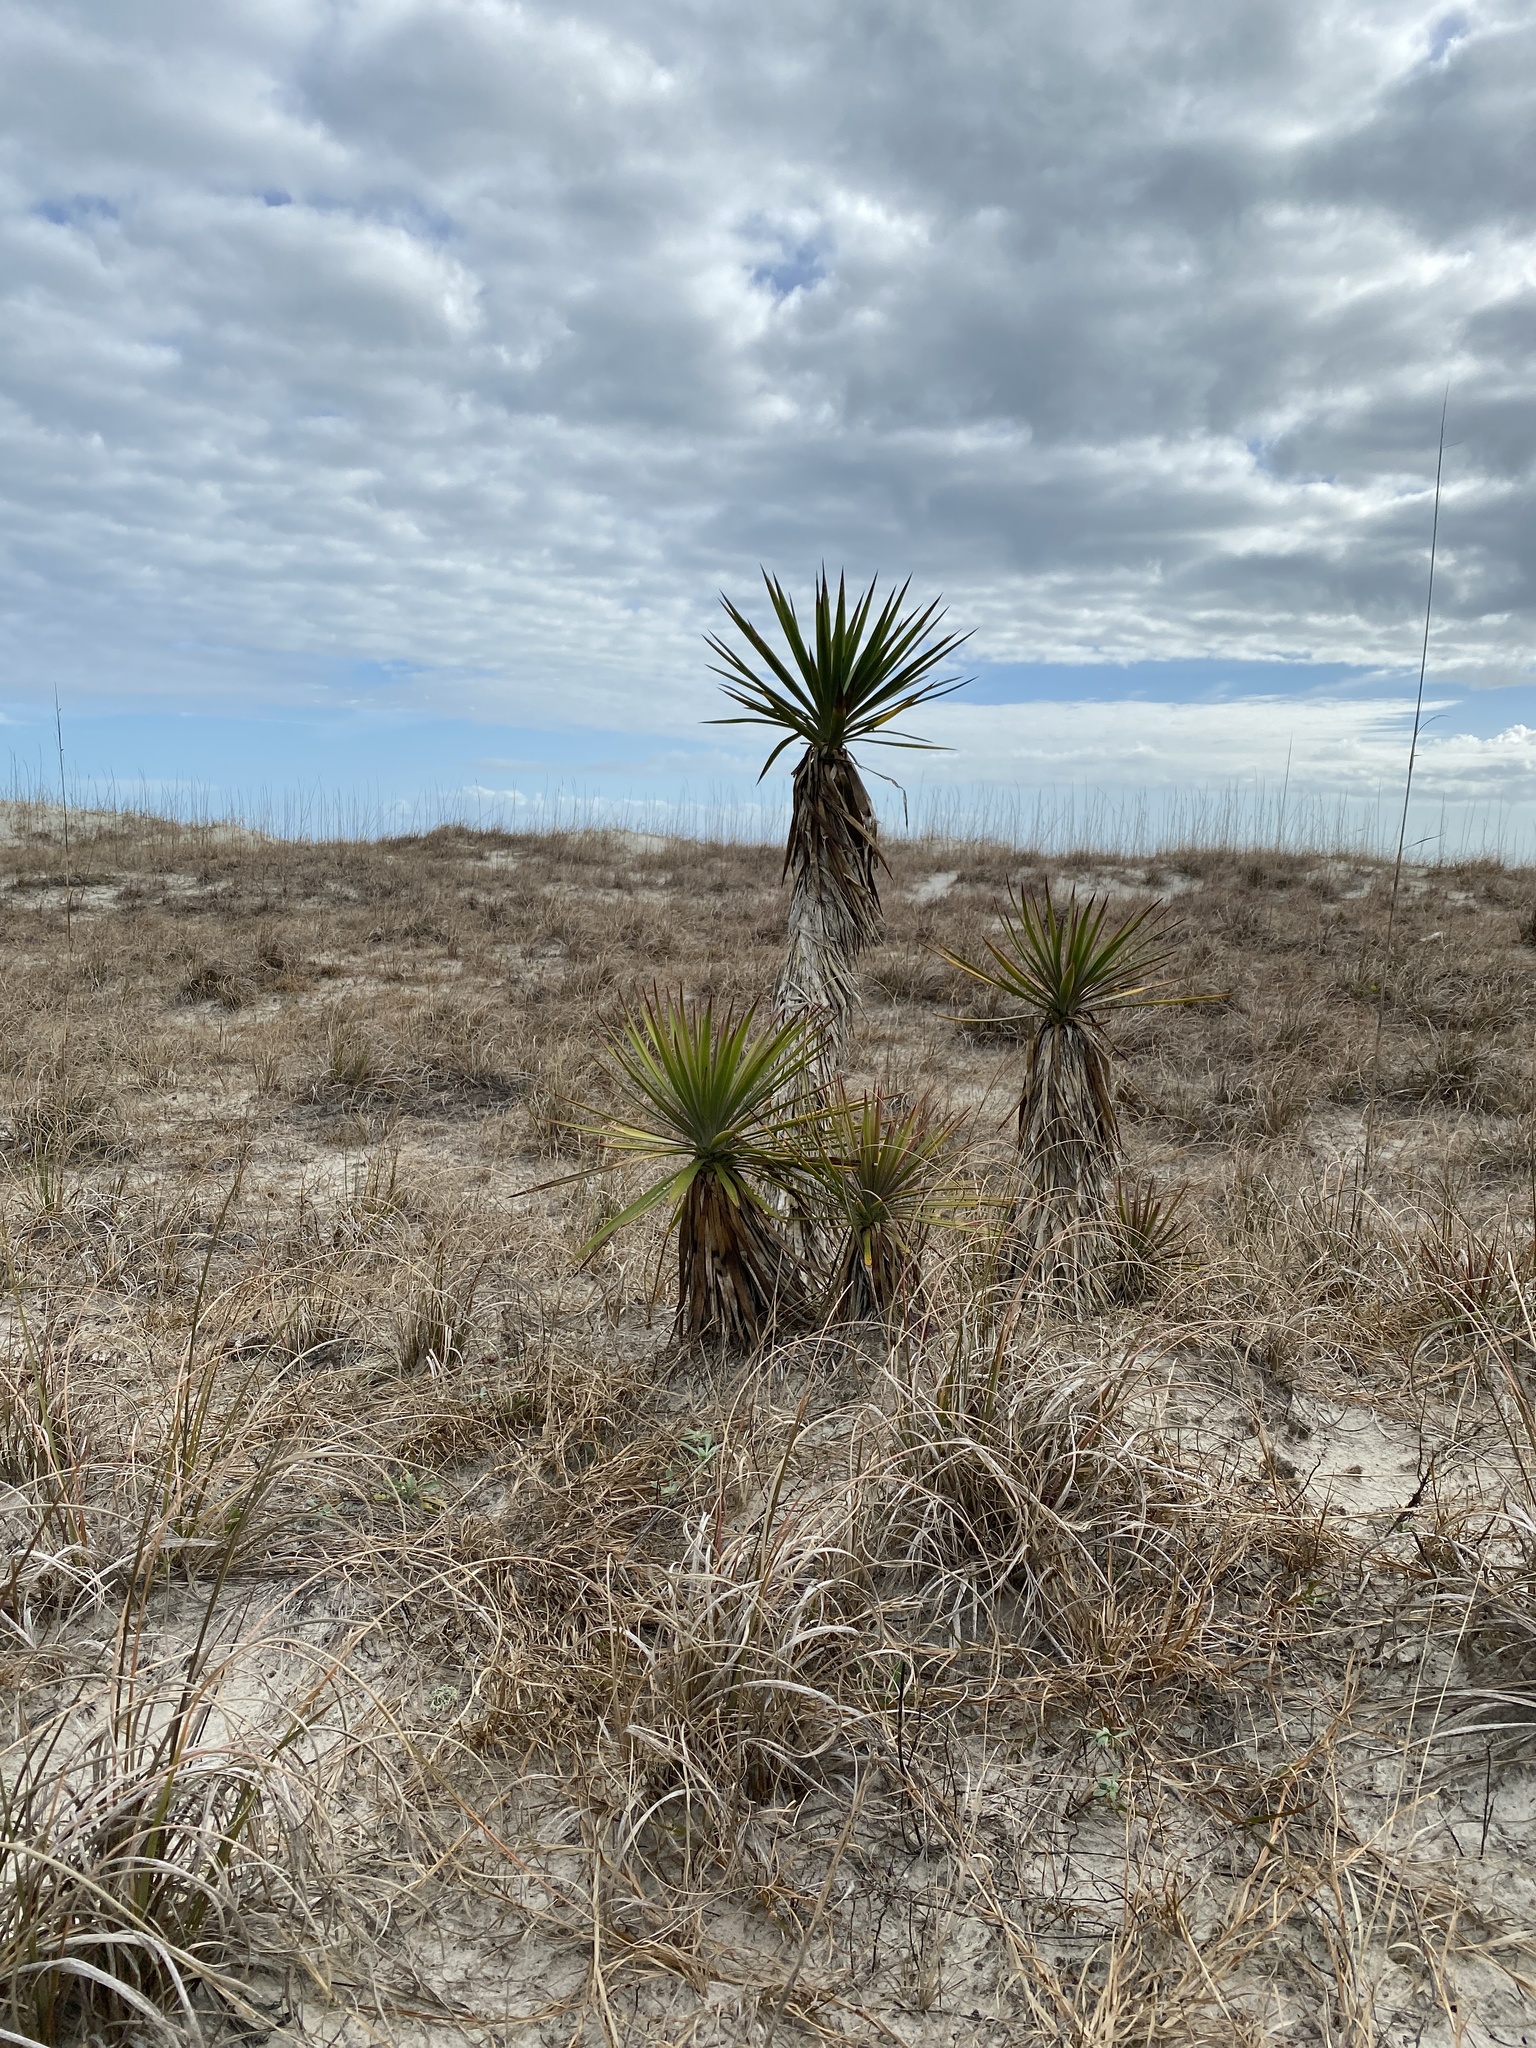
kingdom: Plantae
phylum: Tracheophyta
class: Liliopsida
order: Asparagales
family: Asparagaceae
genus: Yucca
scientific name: Yucca aloifolia
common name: Aloe yucca
